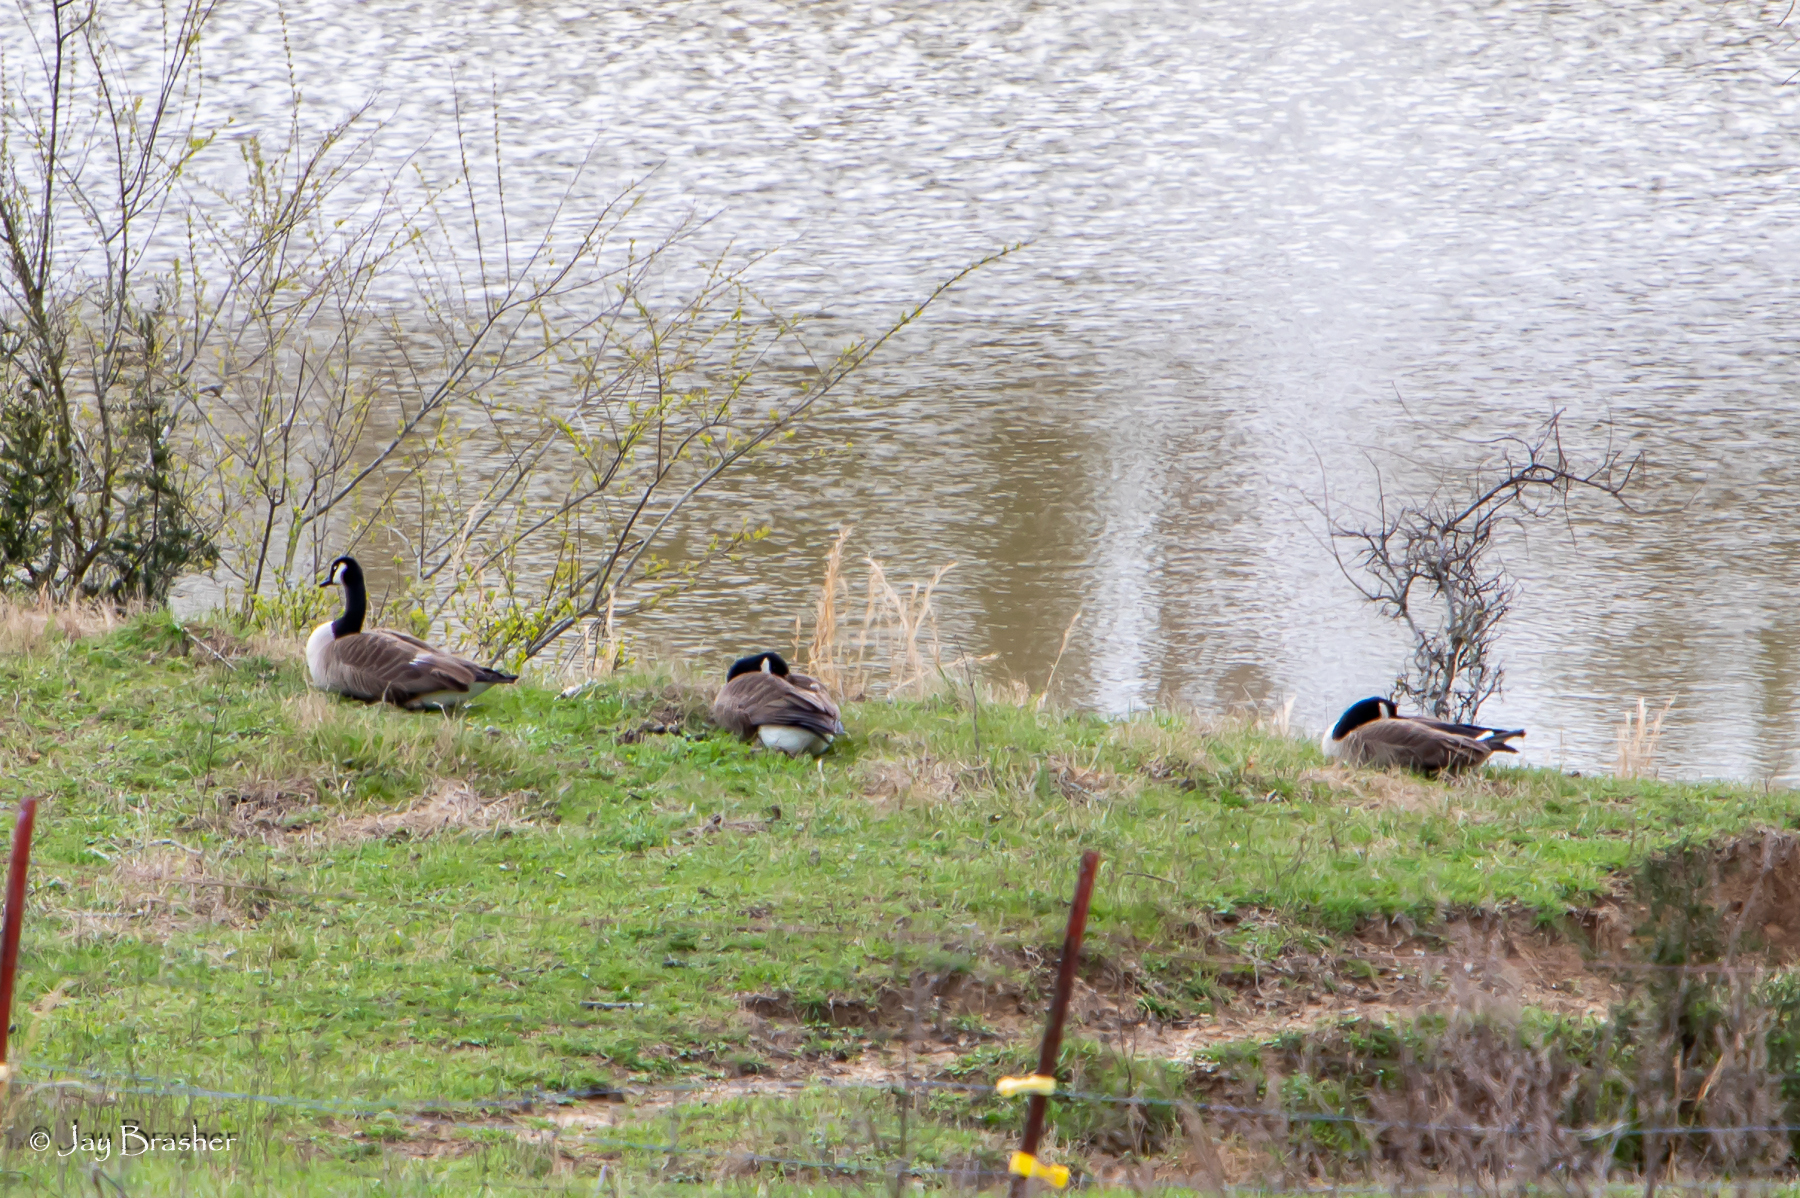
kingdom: Animalia
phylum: Chordata
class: Aves
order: Anseriformes
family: Anatidae
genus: Branta
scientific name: Branta canadensis
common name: Canada goose
